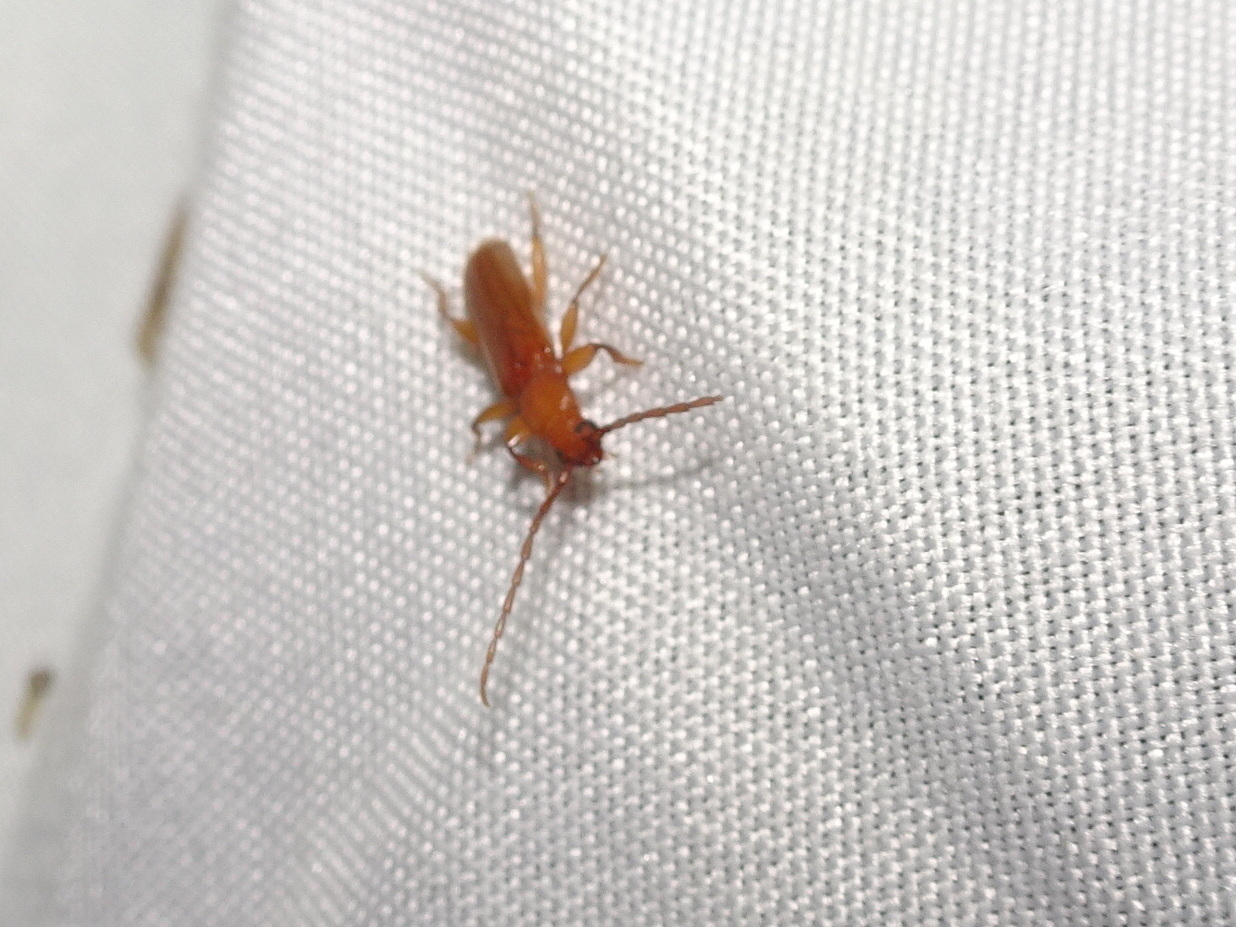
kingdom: Animalia
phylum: Arthropoda
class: Insecta
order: Coleoptera
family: Cerambycidae
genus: Smodicum
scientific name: Smodicum cucujiforme
